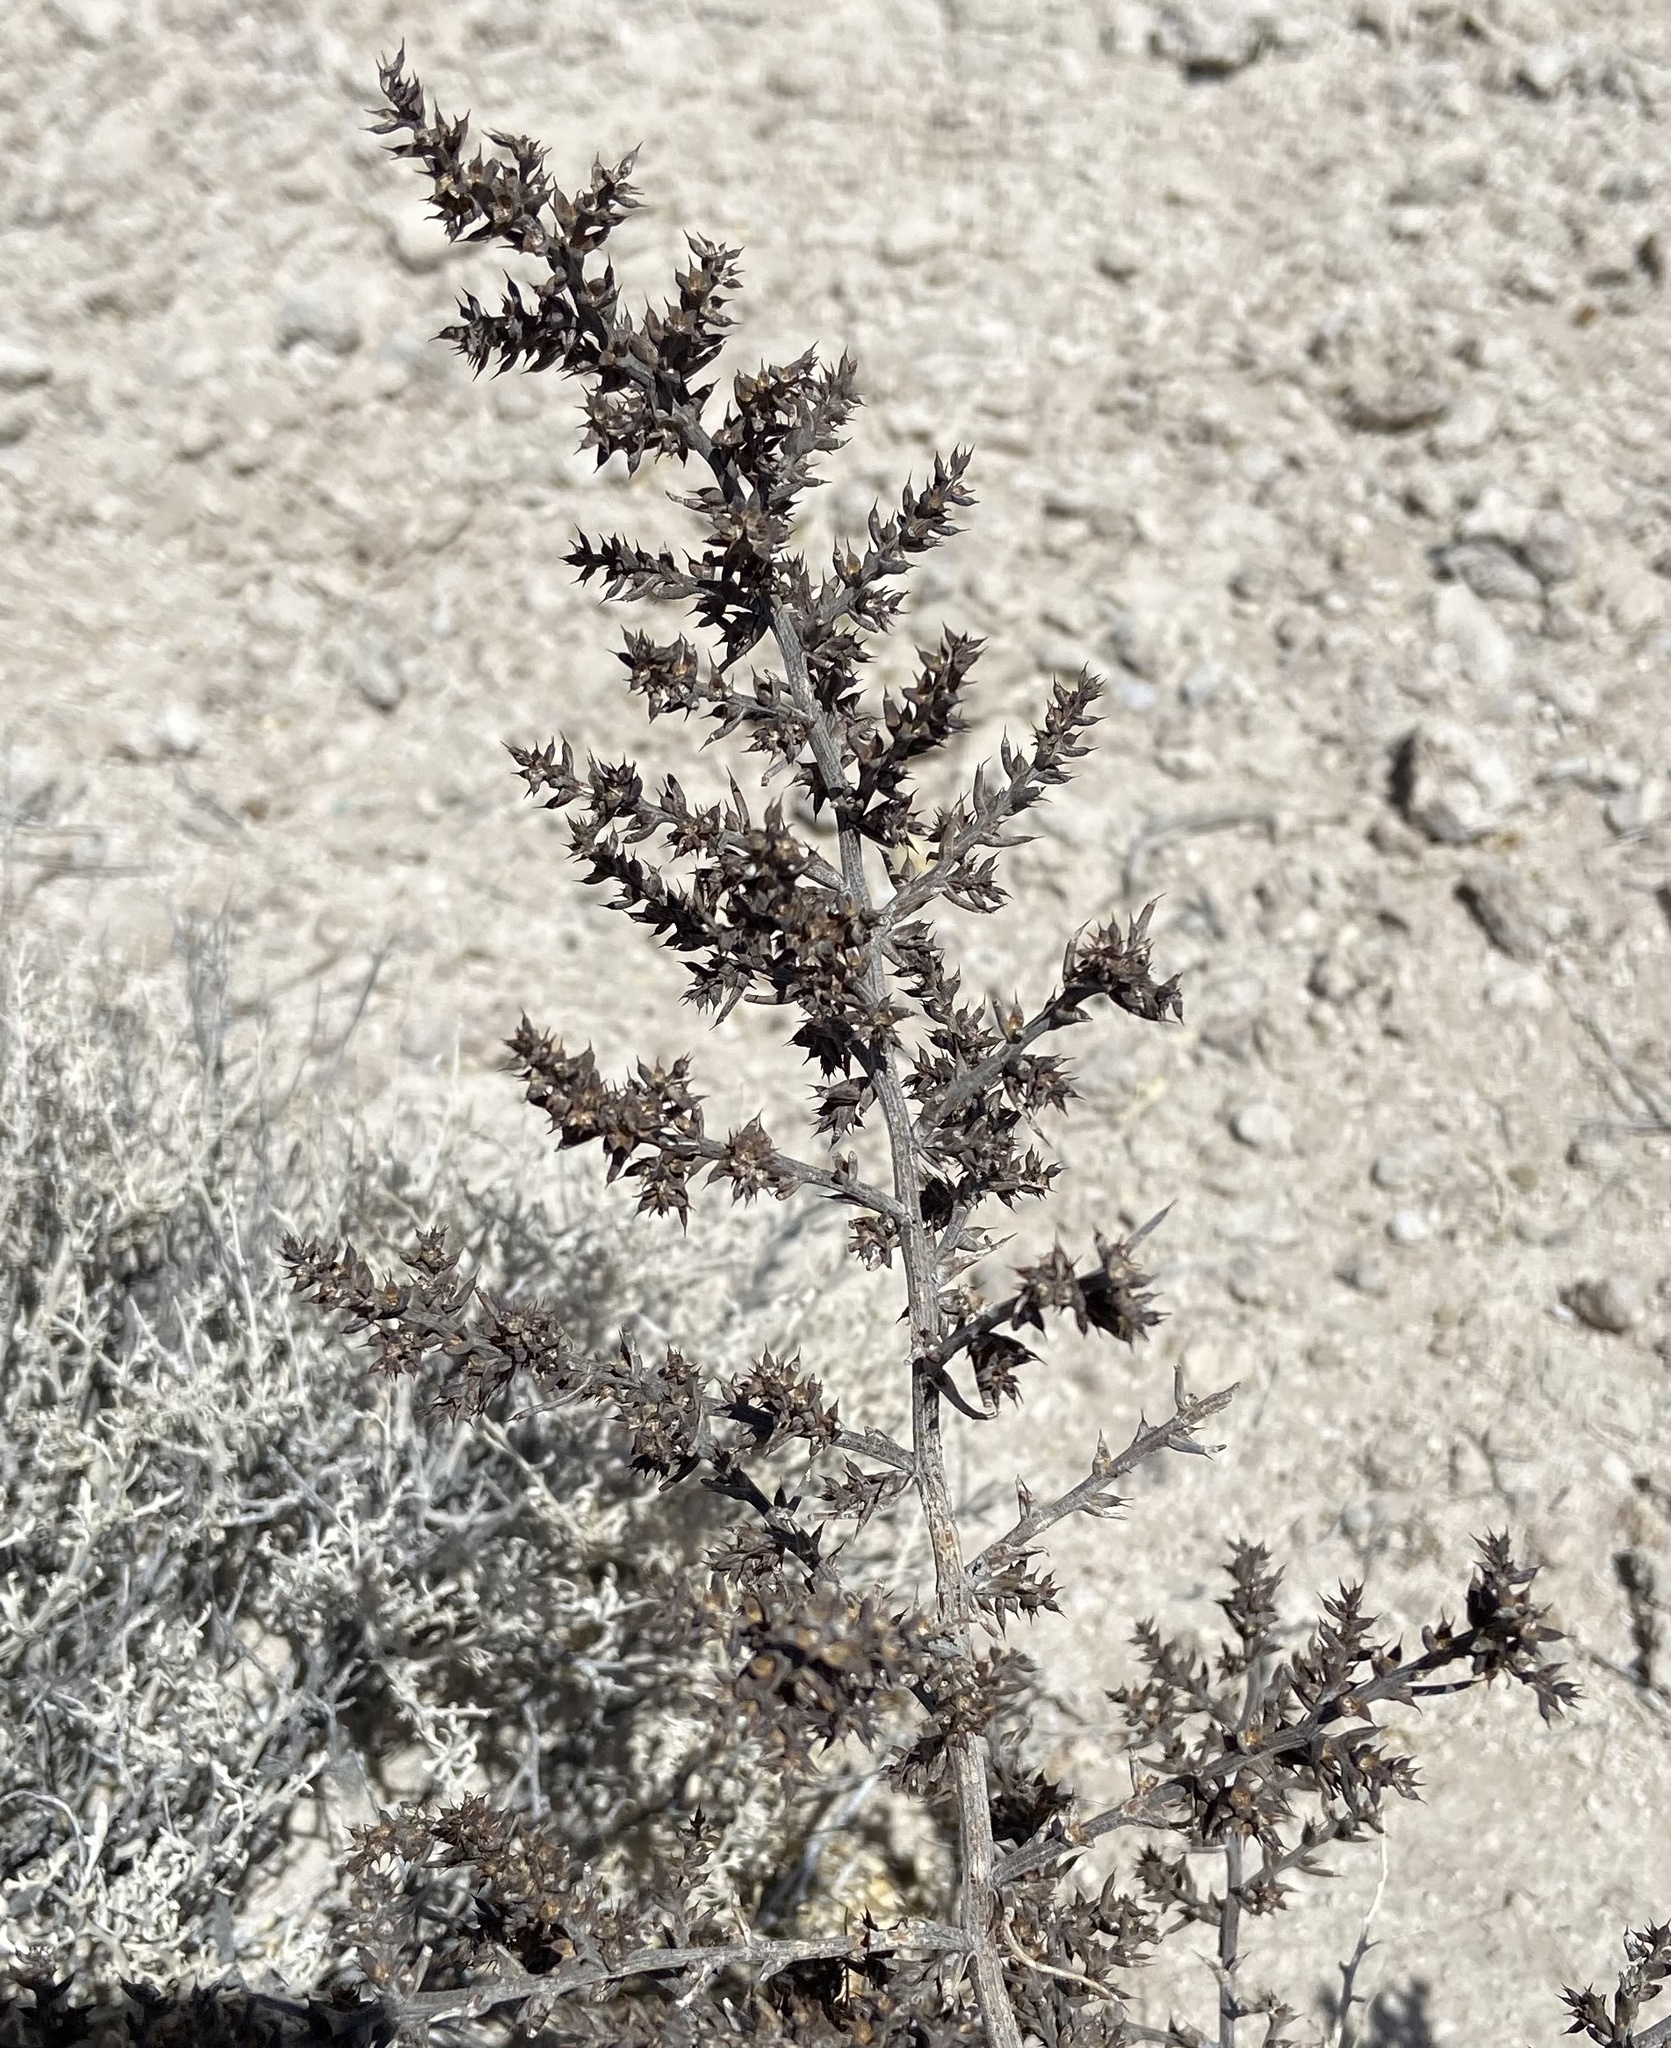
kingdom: Plantae
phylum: Tracheophyta
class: Magnoliopsida
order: Caryophyllales
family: Amaranthaceae
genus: Salsola
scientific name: Salsola tragus
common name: Prickly russian thistle
